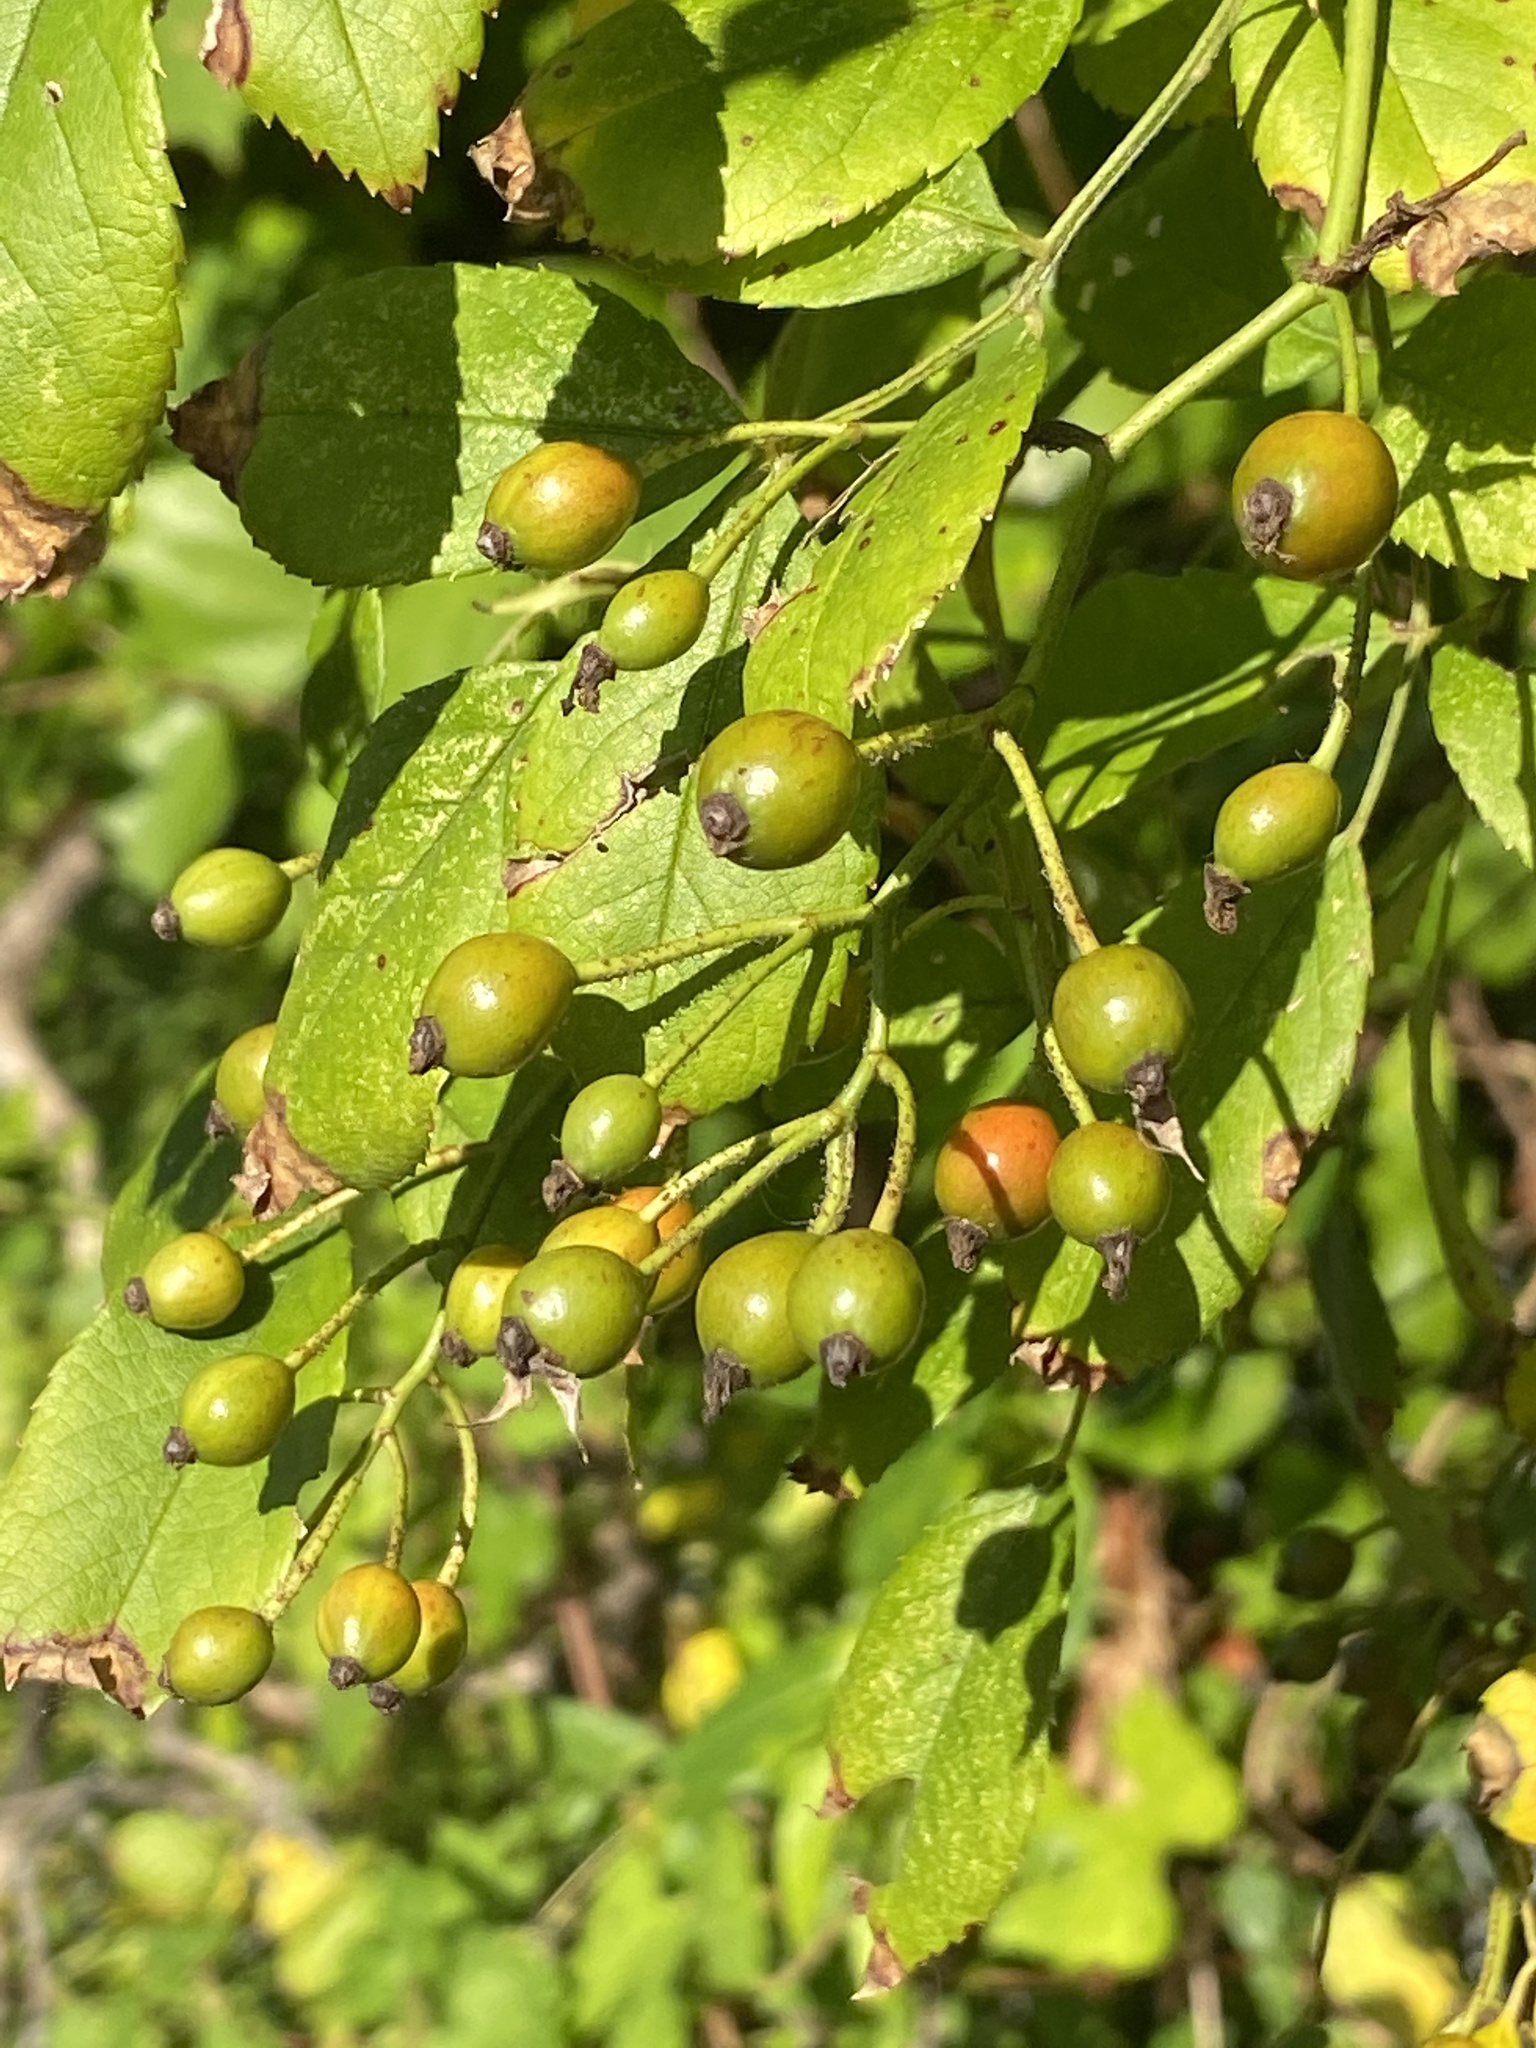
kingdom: Plantae
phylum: Tracheophyta
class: Magnoliopsida
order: Rosales
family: Rosaceae
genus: Rosa
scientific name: Rosa multiflora
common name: Multiflora rose
